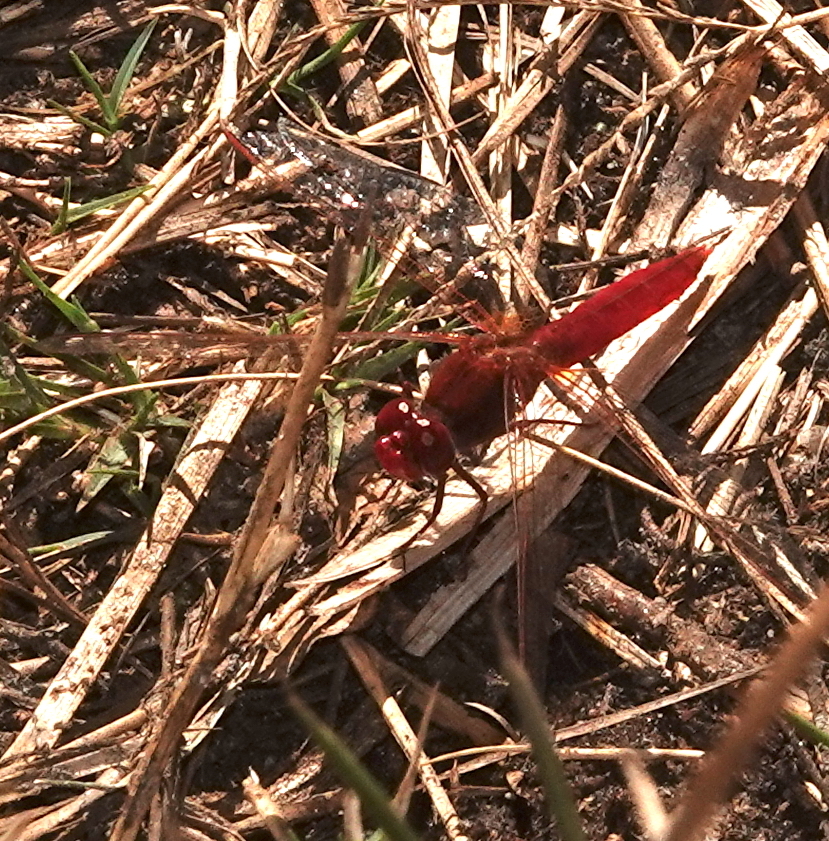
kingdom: Animalia
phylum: Arthropoda
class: Insecta
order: Odonata
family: Libellulidae
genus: Crocothemis
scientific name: Crocothemis erythraea
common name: Scarlet dragonfly
